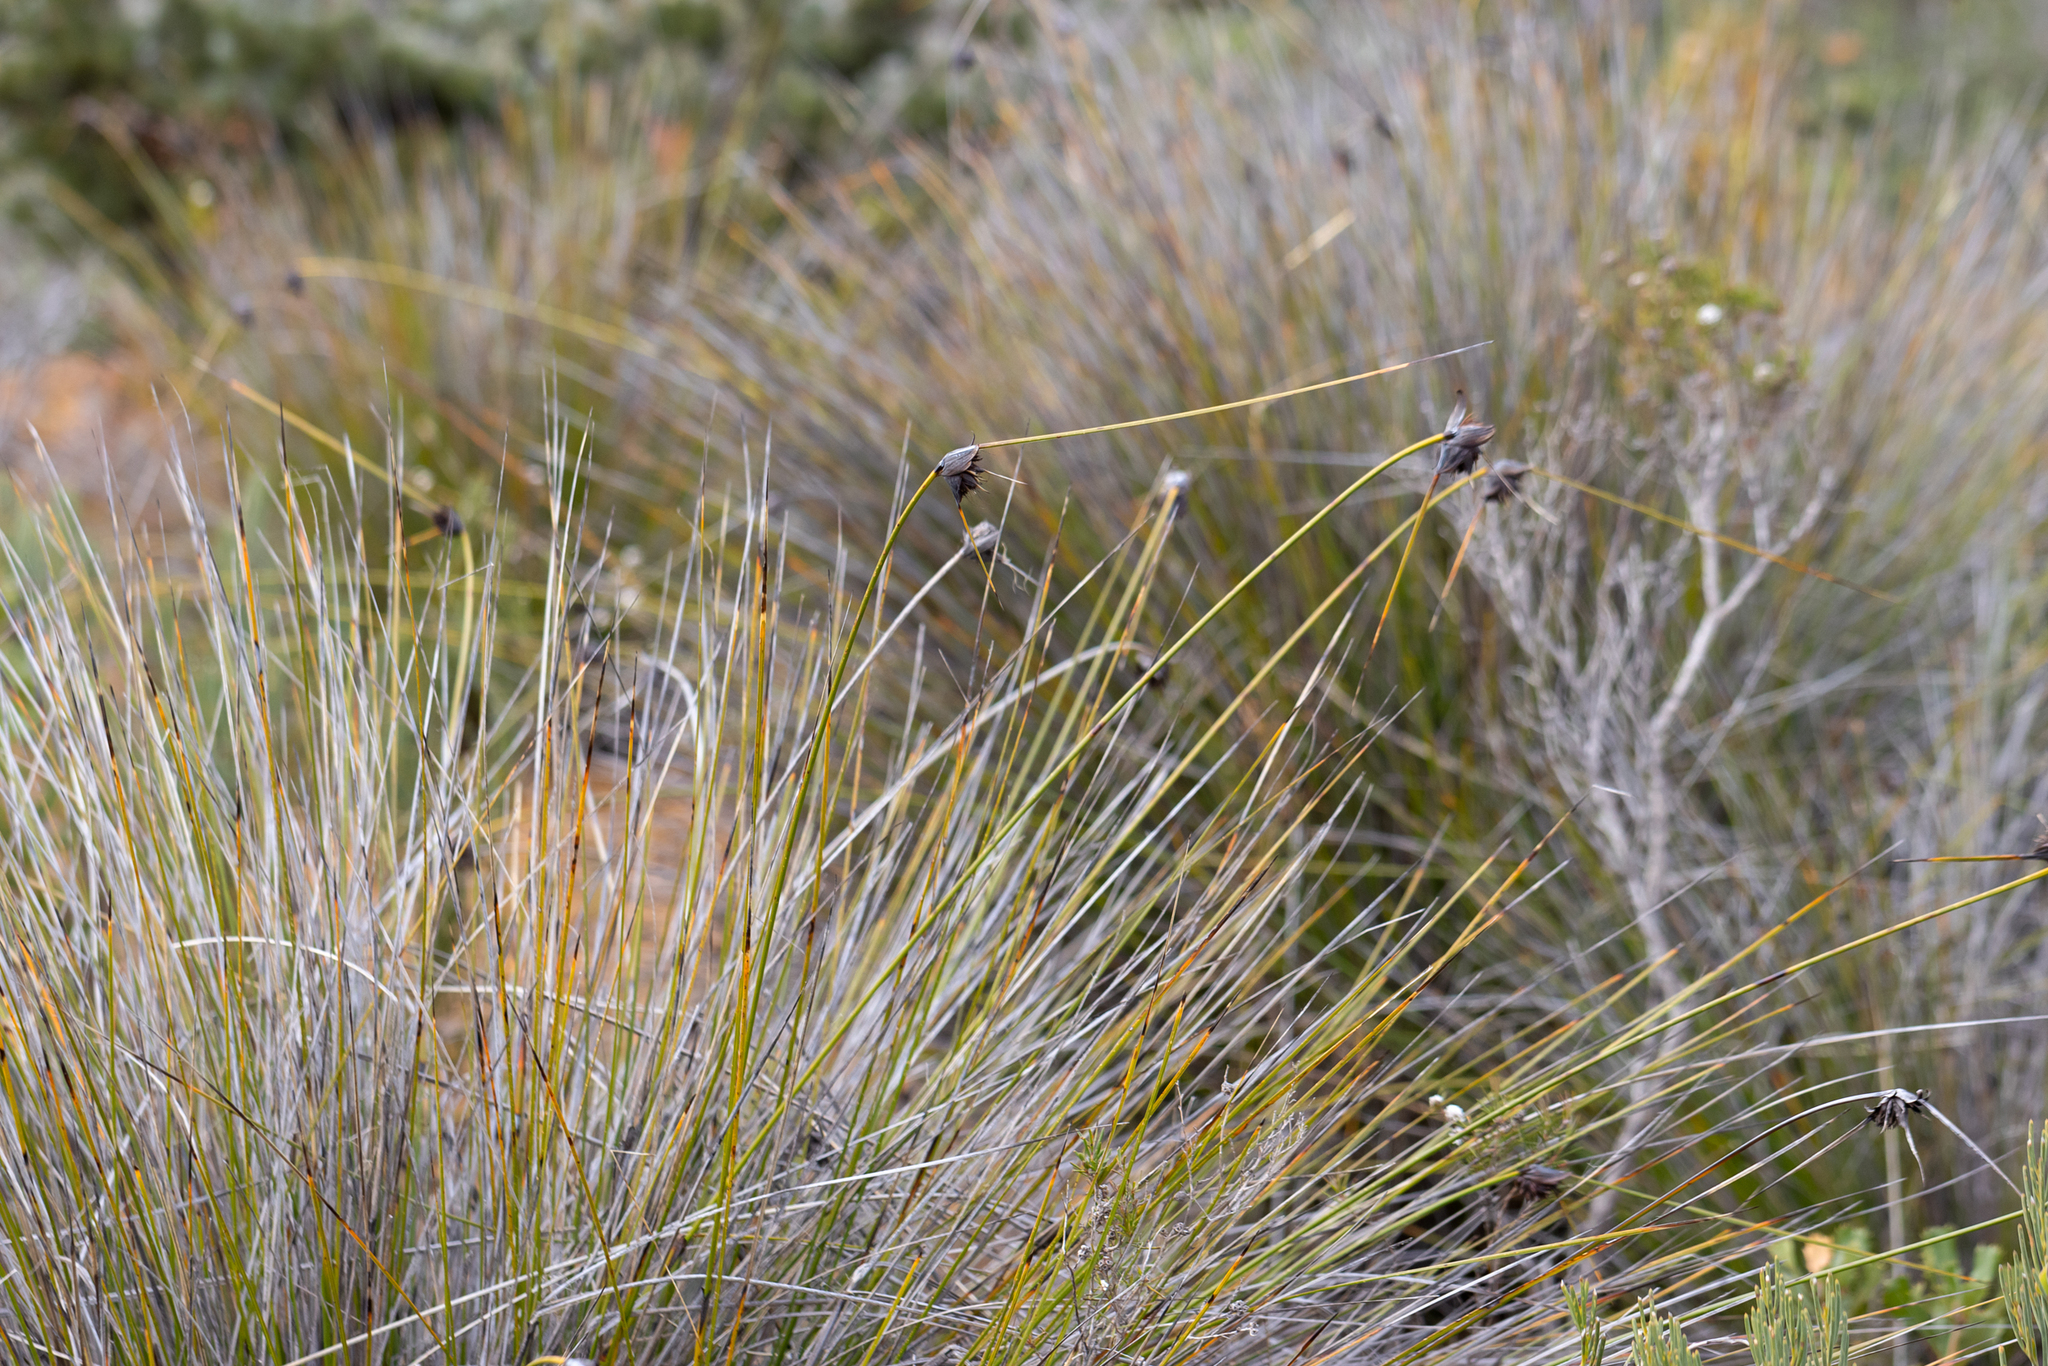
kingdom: Plantae
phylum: Tracheophyta
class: Liliopsida
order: Poales
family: Cyperaceae
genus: Mesomelaena
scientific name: Mesomelaena tetragona
